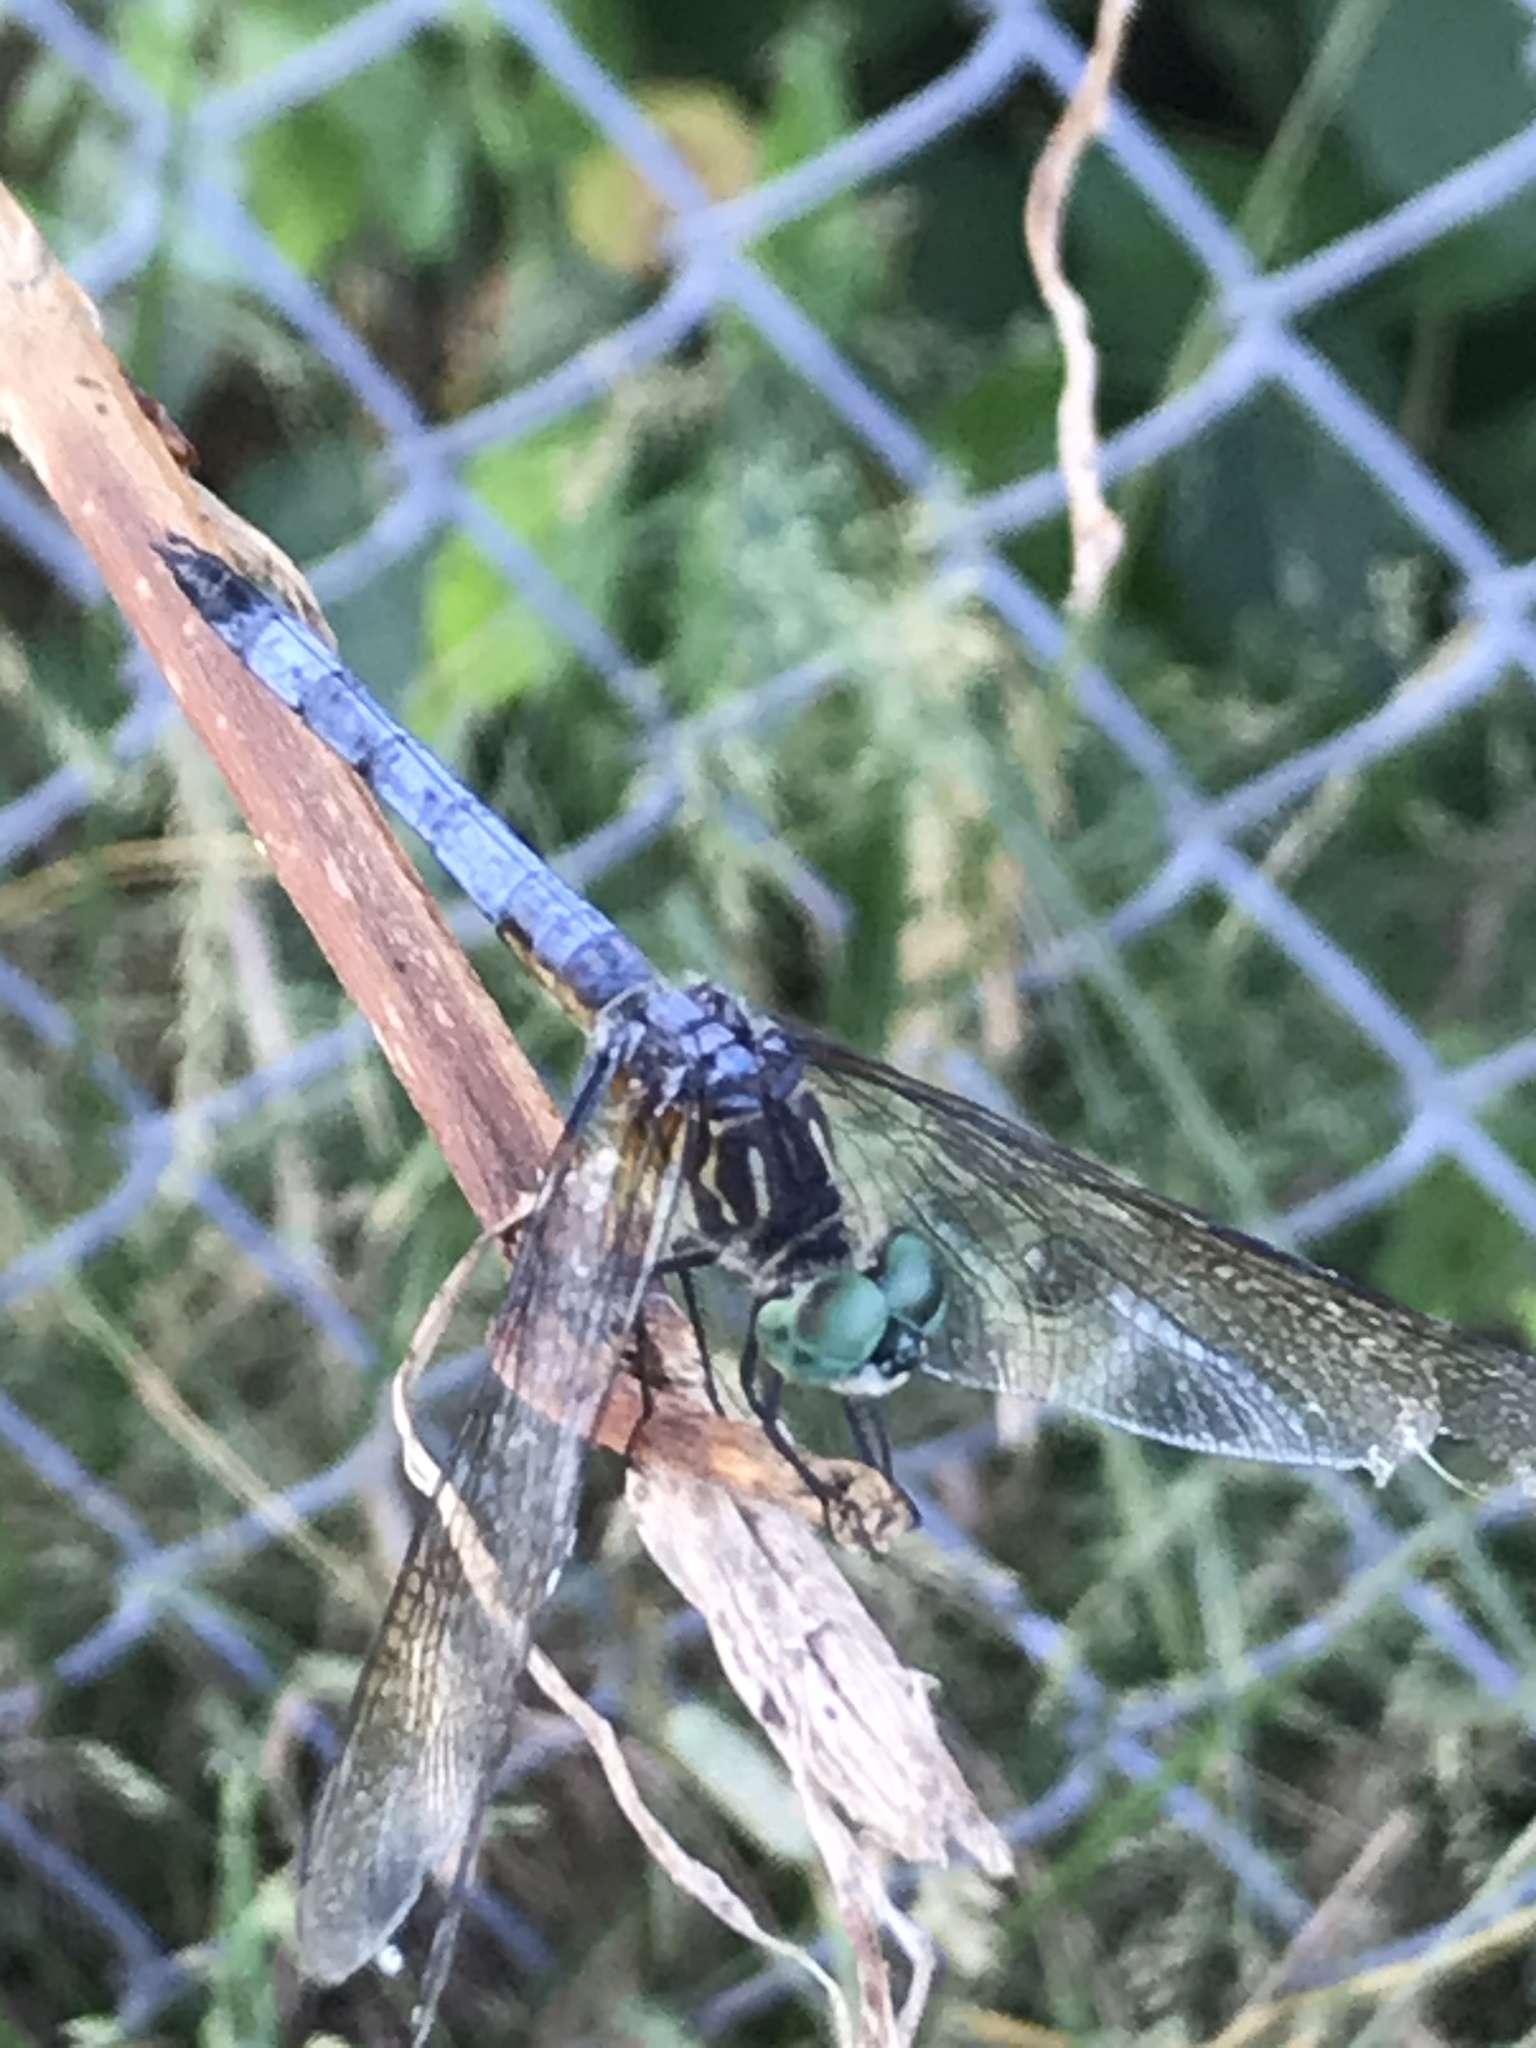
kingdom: Animalia
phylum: Arthropoda
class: Insecta
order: Odonata
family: Libellulidae
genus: Pachydiplax
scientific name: Pachydiplax longipennis
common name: Blue dasher
